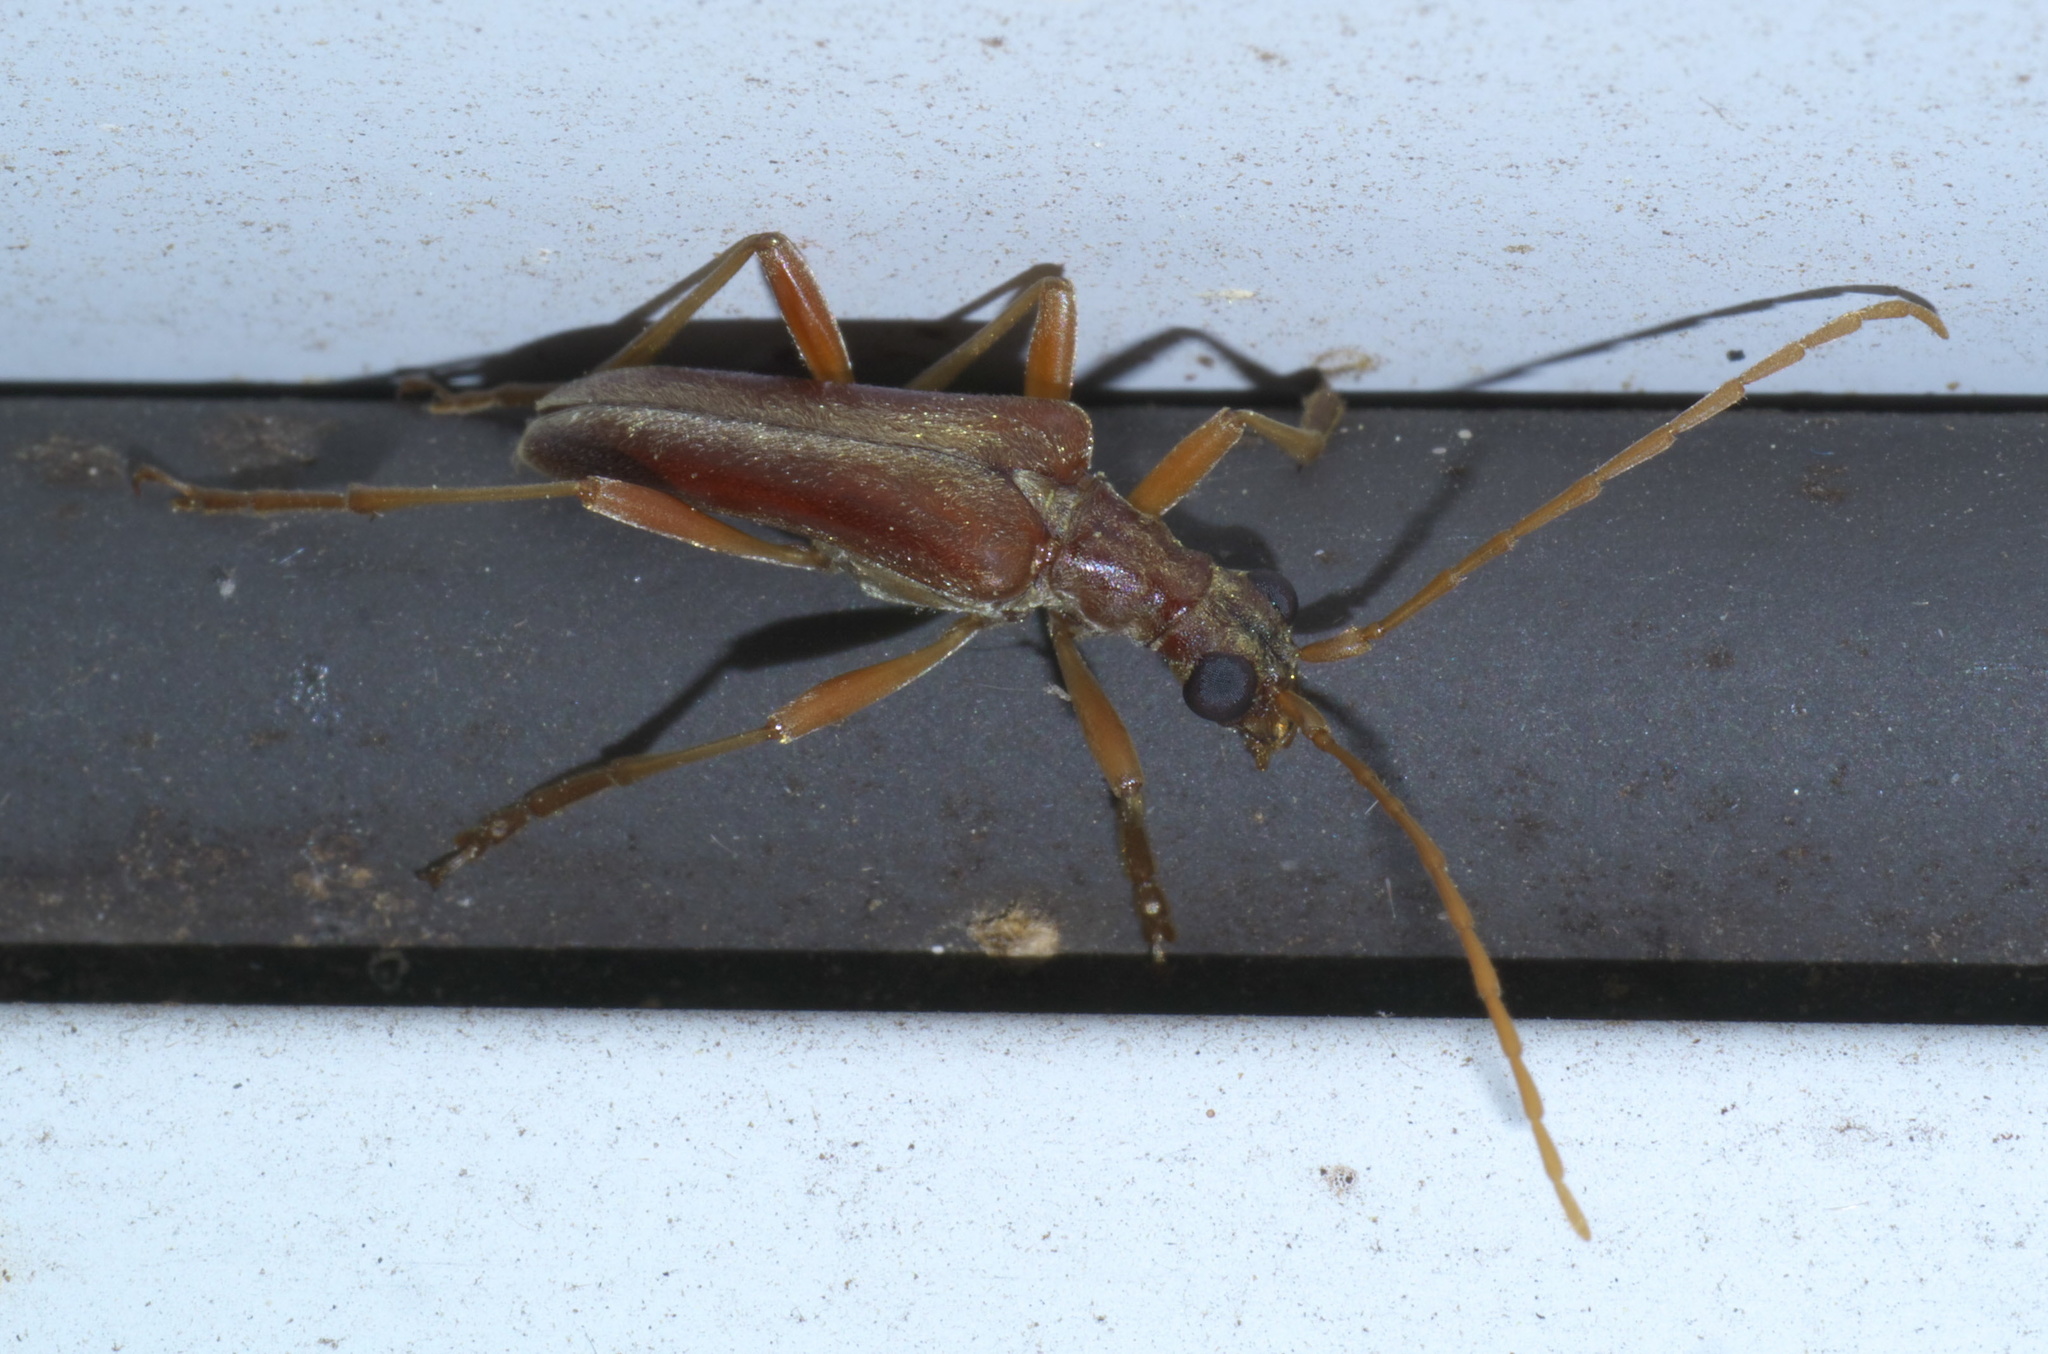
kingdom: Animalia
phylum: Arthropoda
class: Insecta
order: Coleoptera
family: Cerambycidae
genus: Stenocorus
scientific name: Stenocorus cinnamopterus
